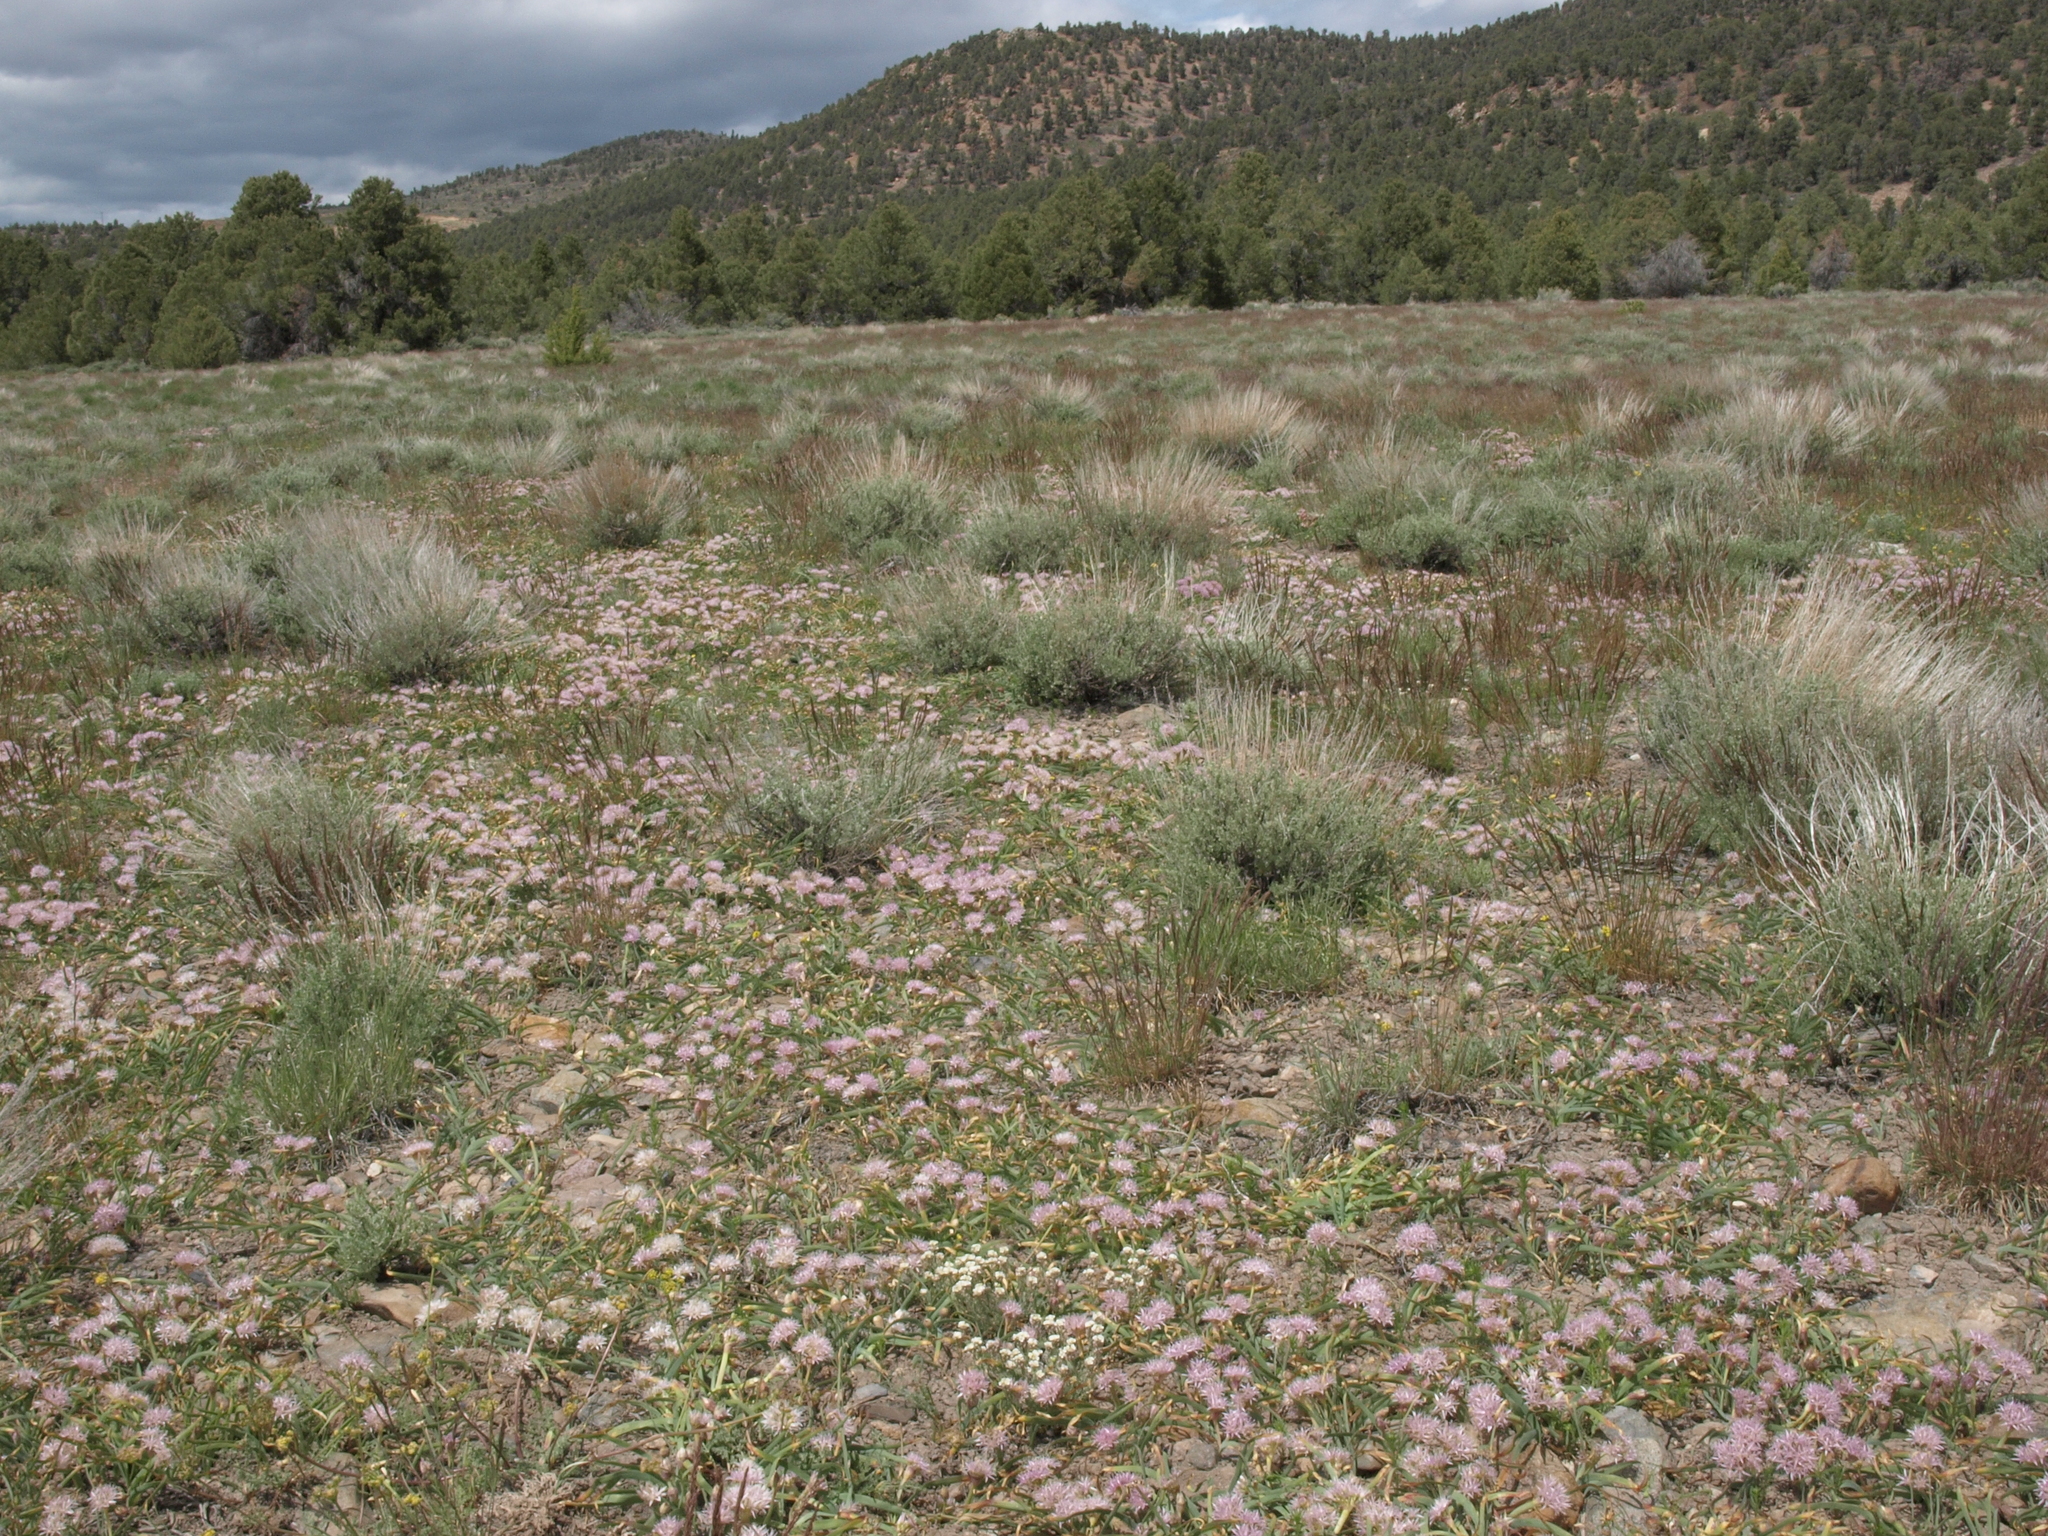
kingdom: Plantae
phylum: Tracheophyta
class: Liliopsida
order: Asparagales
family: Amaryllidaceae
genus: Allium
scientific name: Allium anceps
